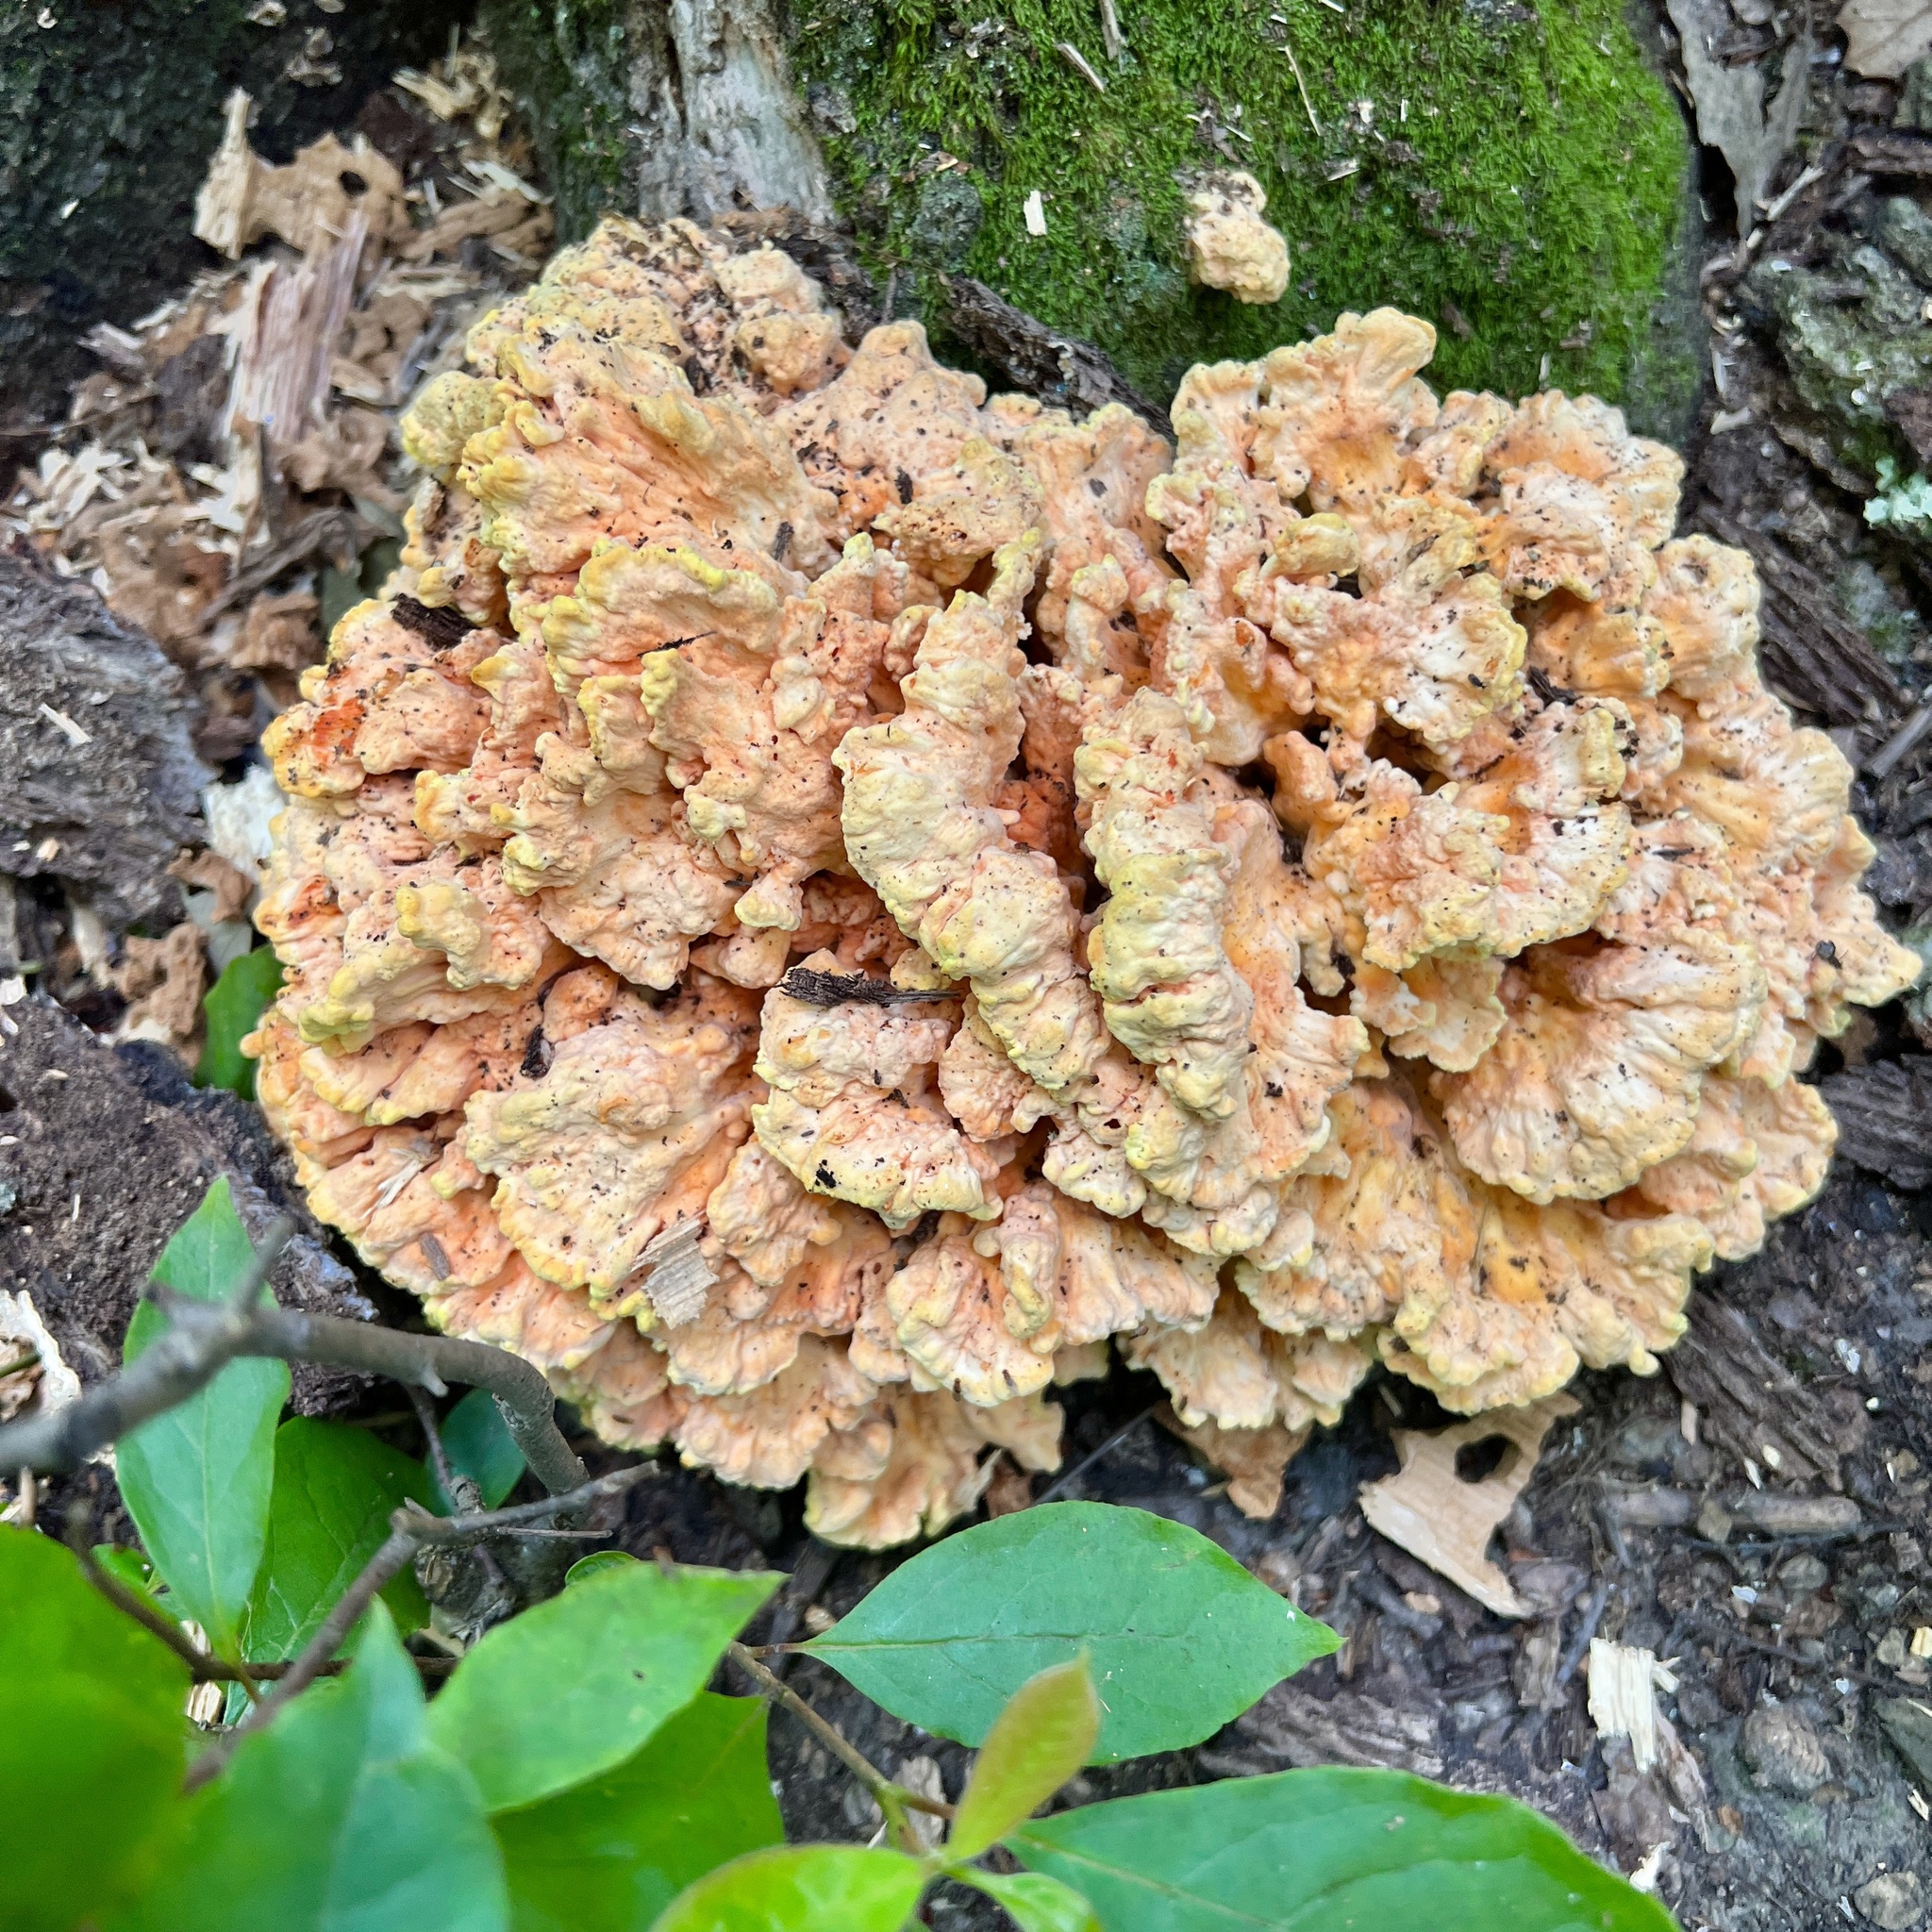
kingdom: Fungi
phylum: Basidiomycota
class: Agaricomycetes
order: Polyporales
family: Laetiporaceae
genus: Laetiporus
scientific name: Laetiporus sulphureus
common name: Chicken of the woods
